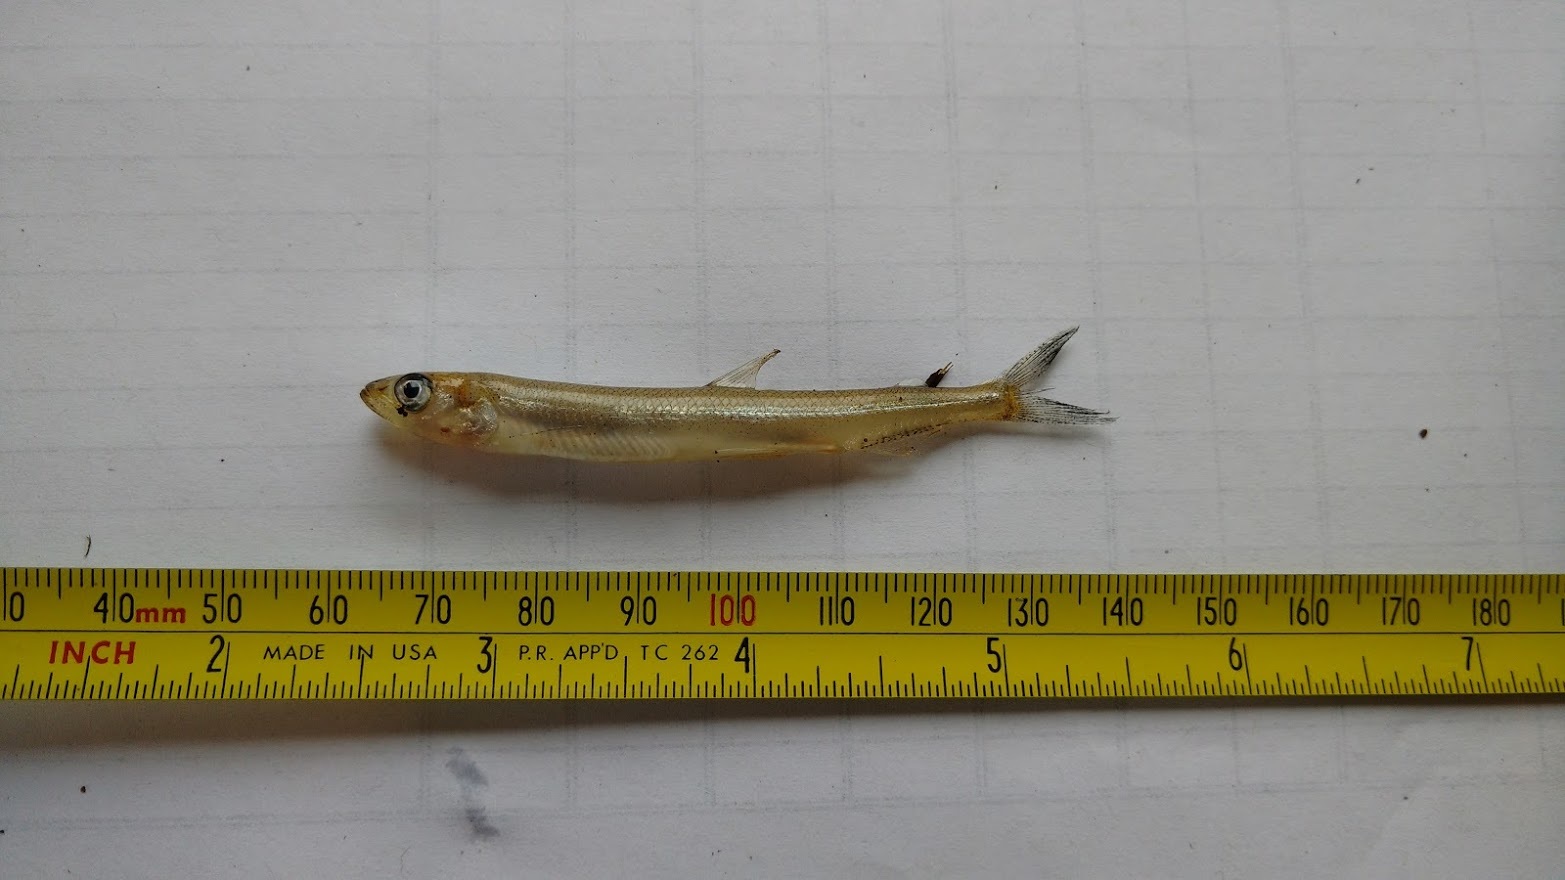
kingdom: Animalia
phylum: Chordata
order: Osmeriformes
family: Osmeridae
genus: Osmerus
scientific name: Osmerus mordax
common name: Rainbow smelt
